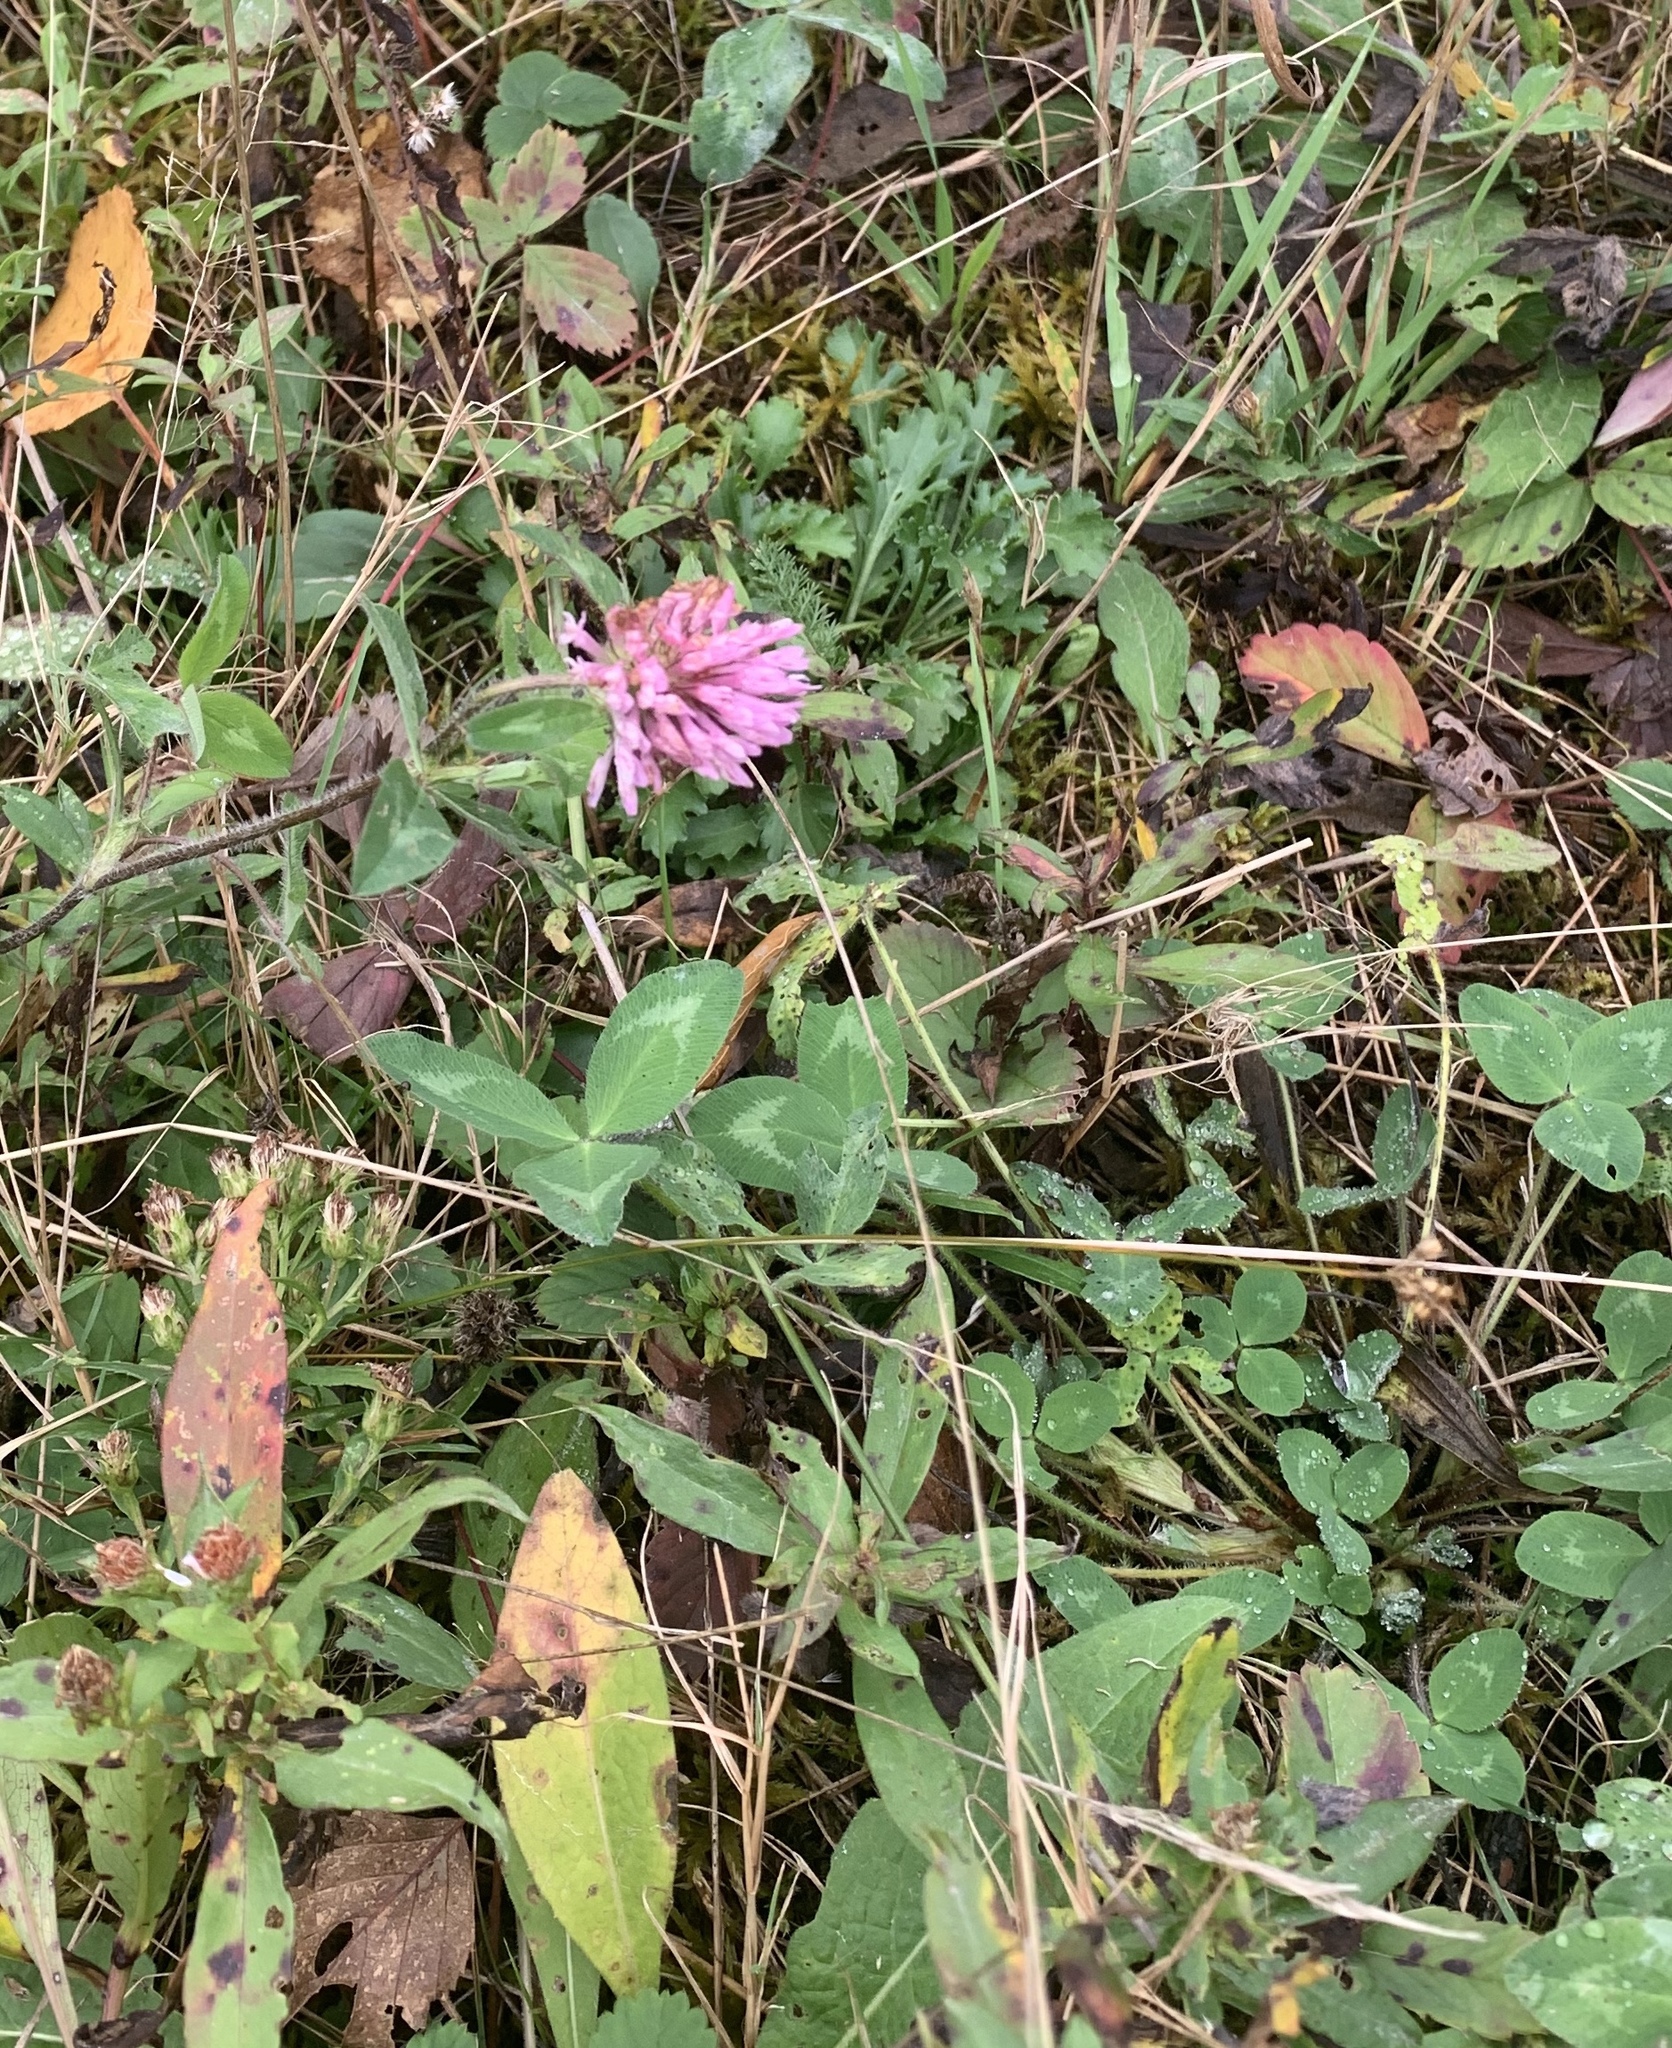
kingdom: Plantae
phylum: Tracheophyta
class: Magnoliopsida
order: Fabales
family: Fabaceae
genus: Trifolium
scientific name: Trifolium pratense
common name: Red clover
